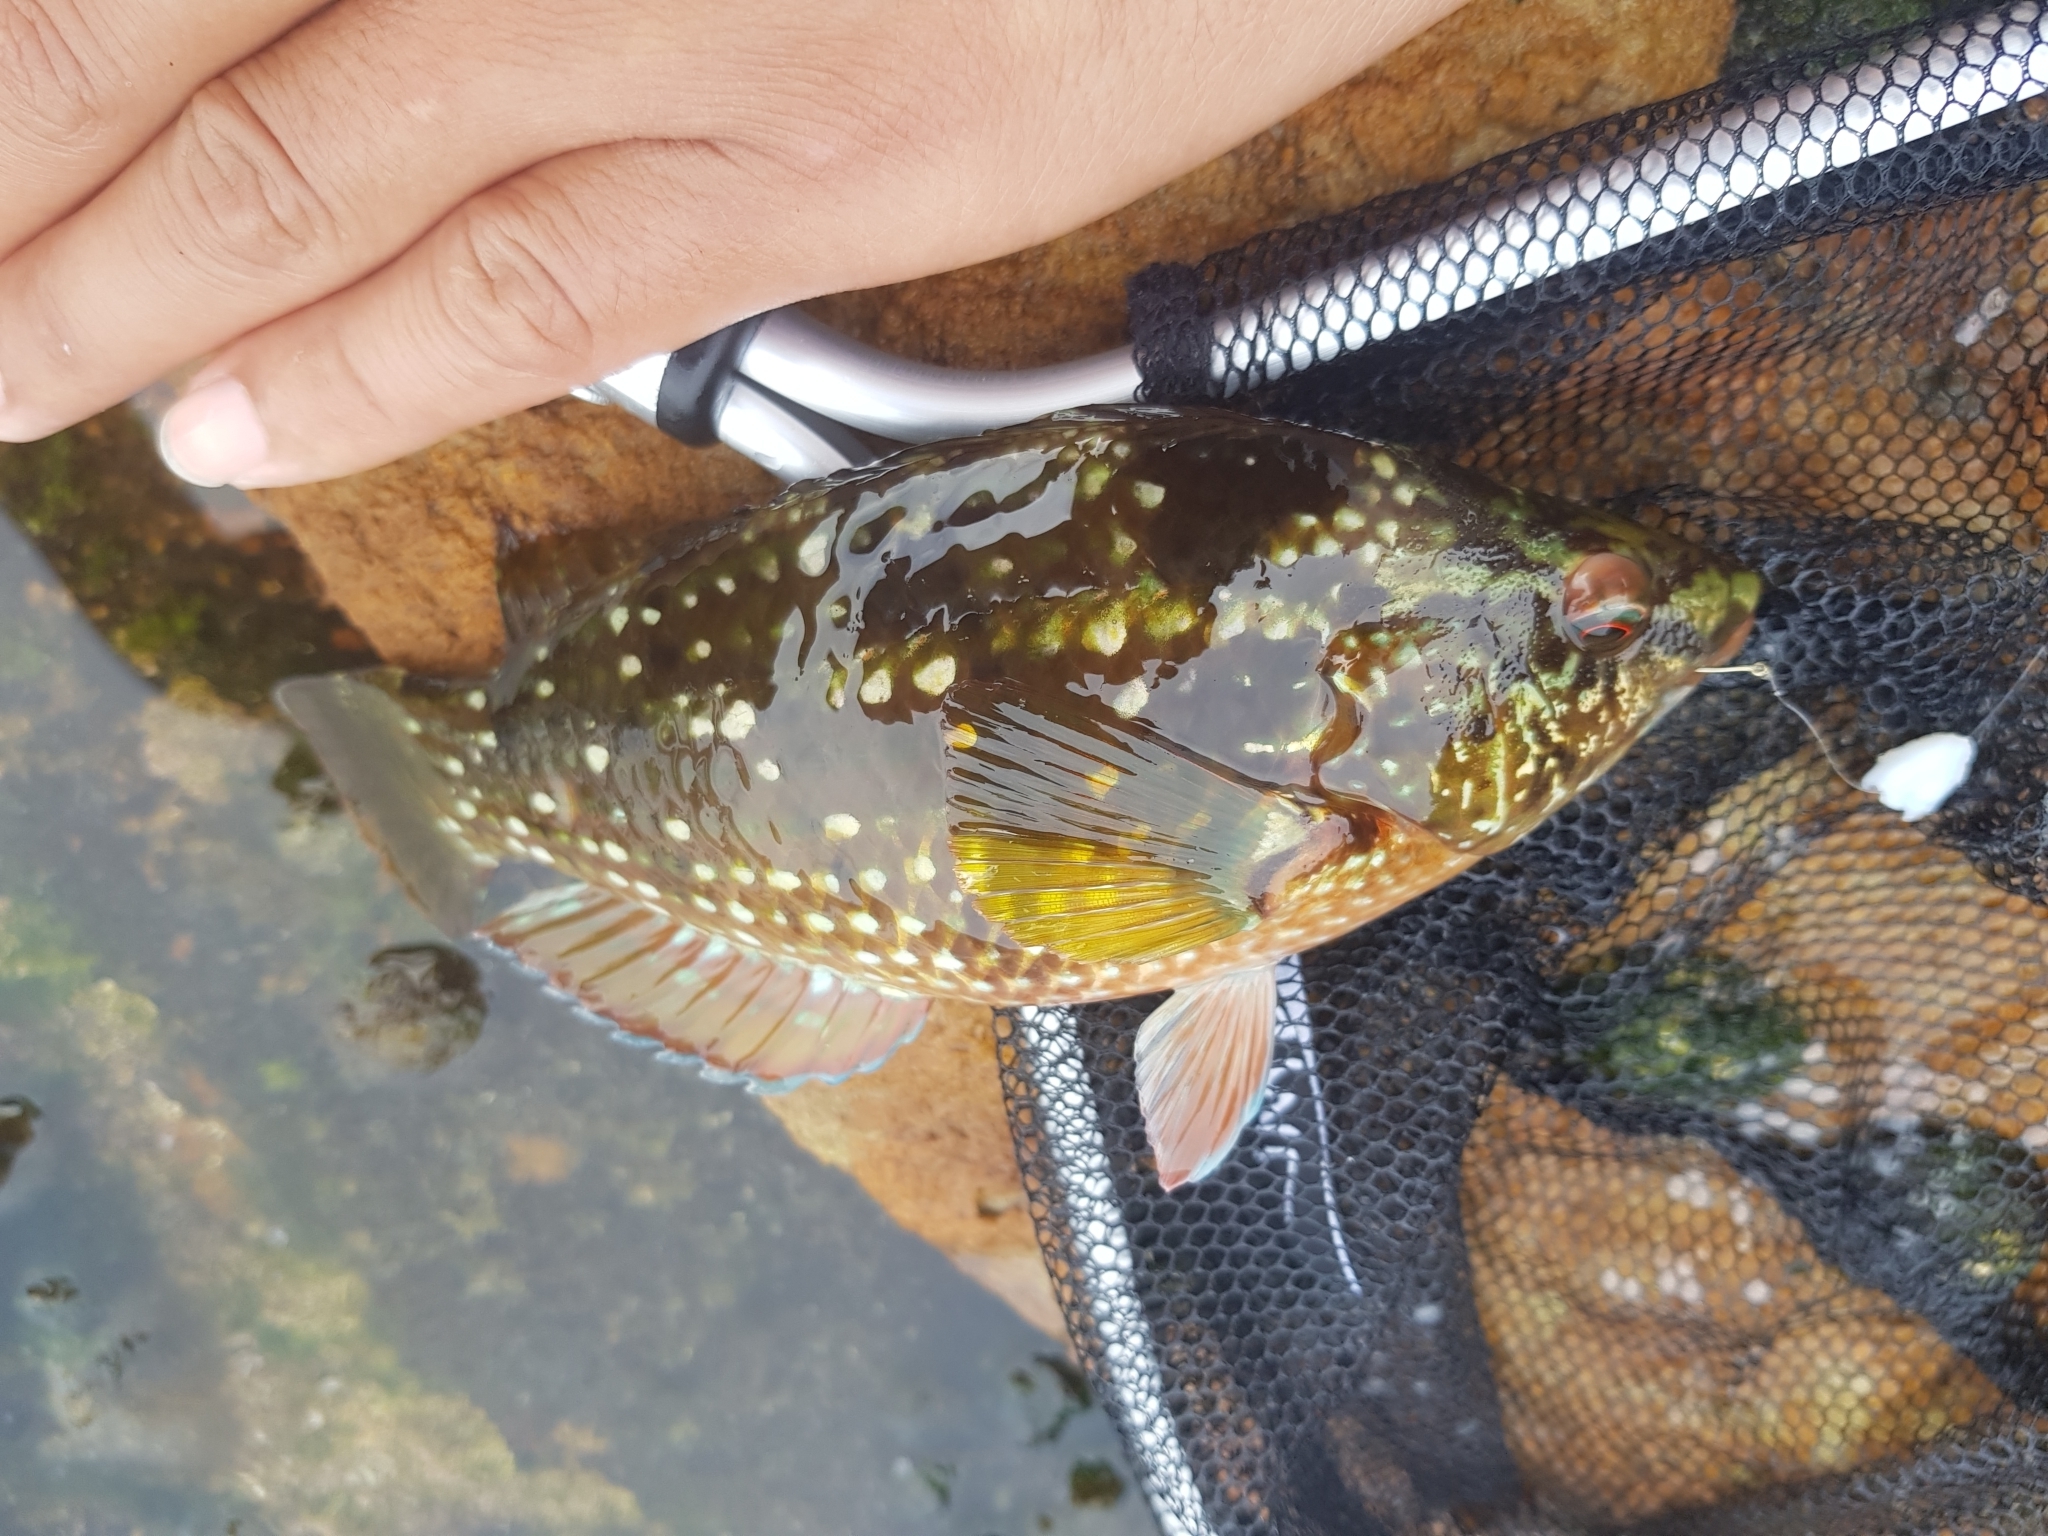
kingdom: Animalia
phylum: Chordata
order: Perciformes
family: Labridae
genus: Notolabrus
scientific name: Notolabrus gymnogenis
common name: Crimson banded wrasse
